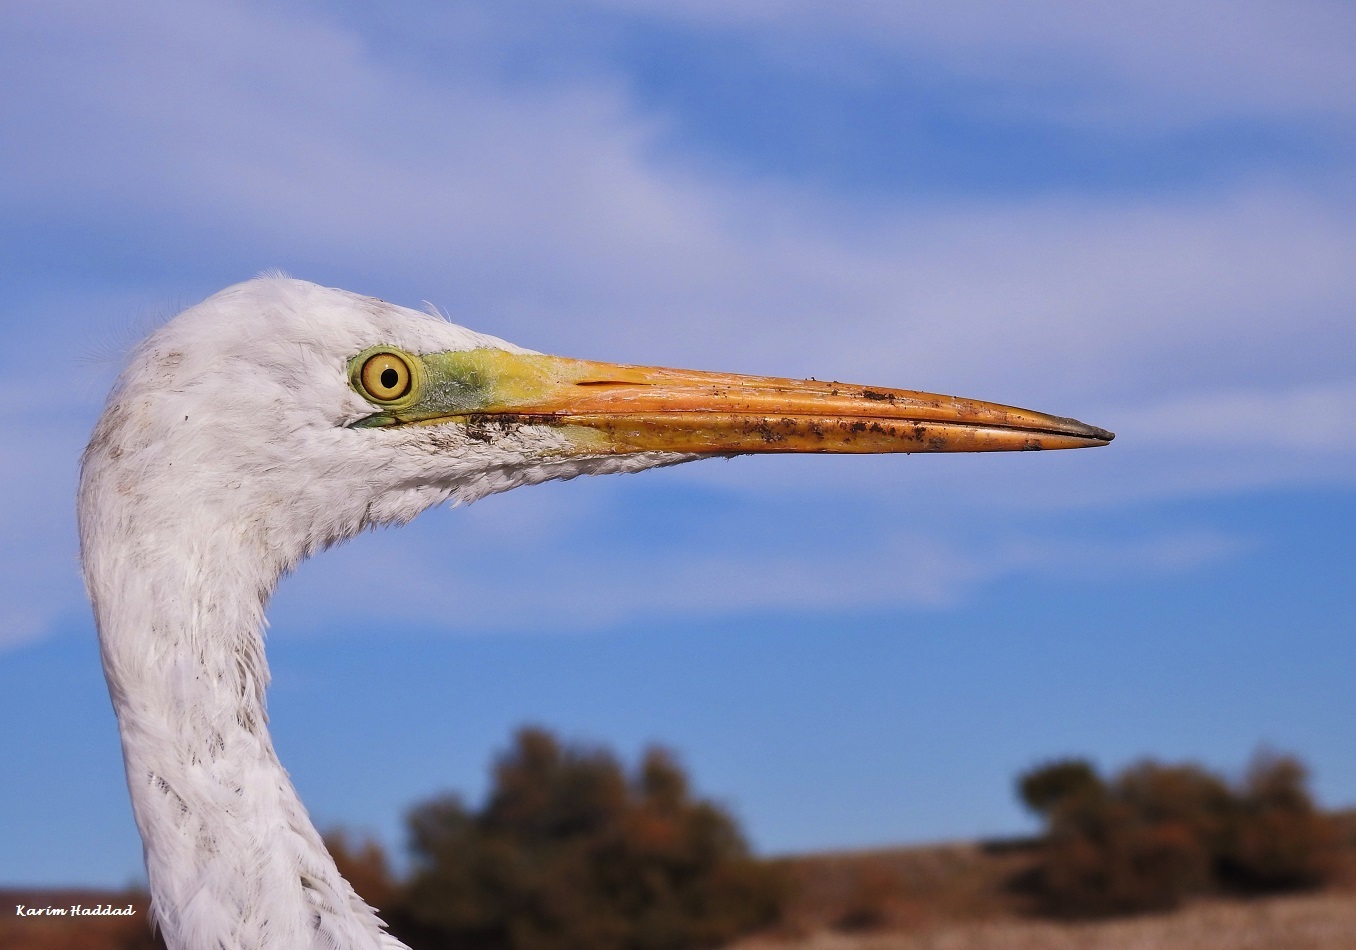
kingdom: Animalia
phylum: Chordata
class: Aves
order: Pelecaniformes
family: Ardeidae
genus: Ardea
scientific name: Ardea alba
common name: Great egret
